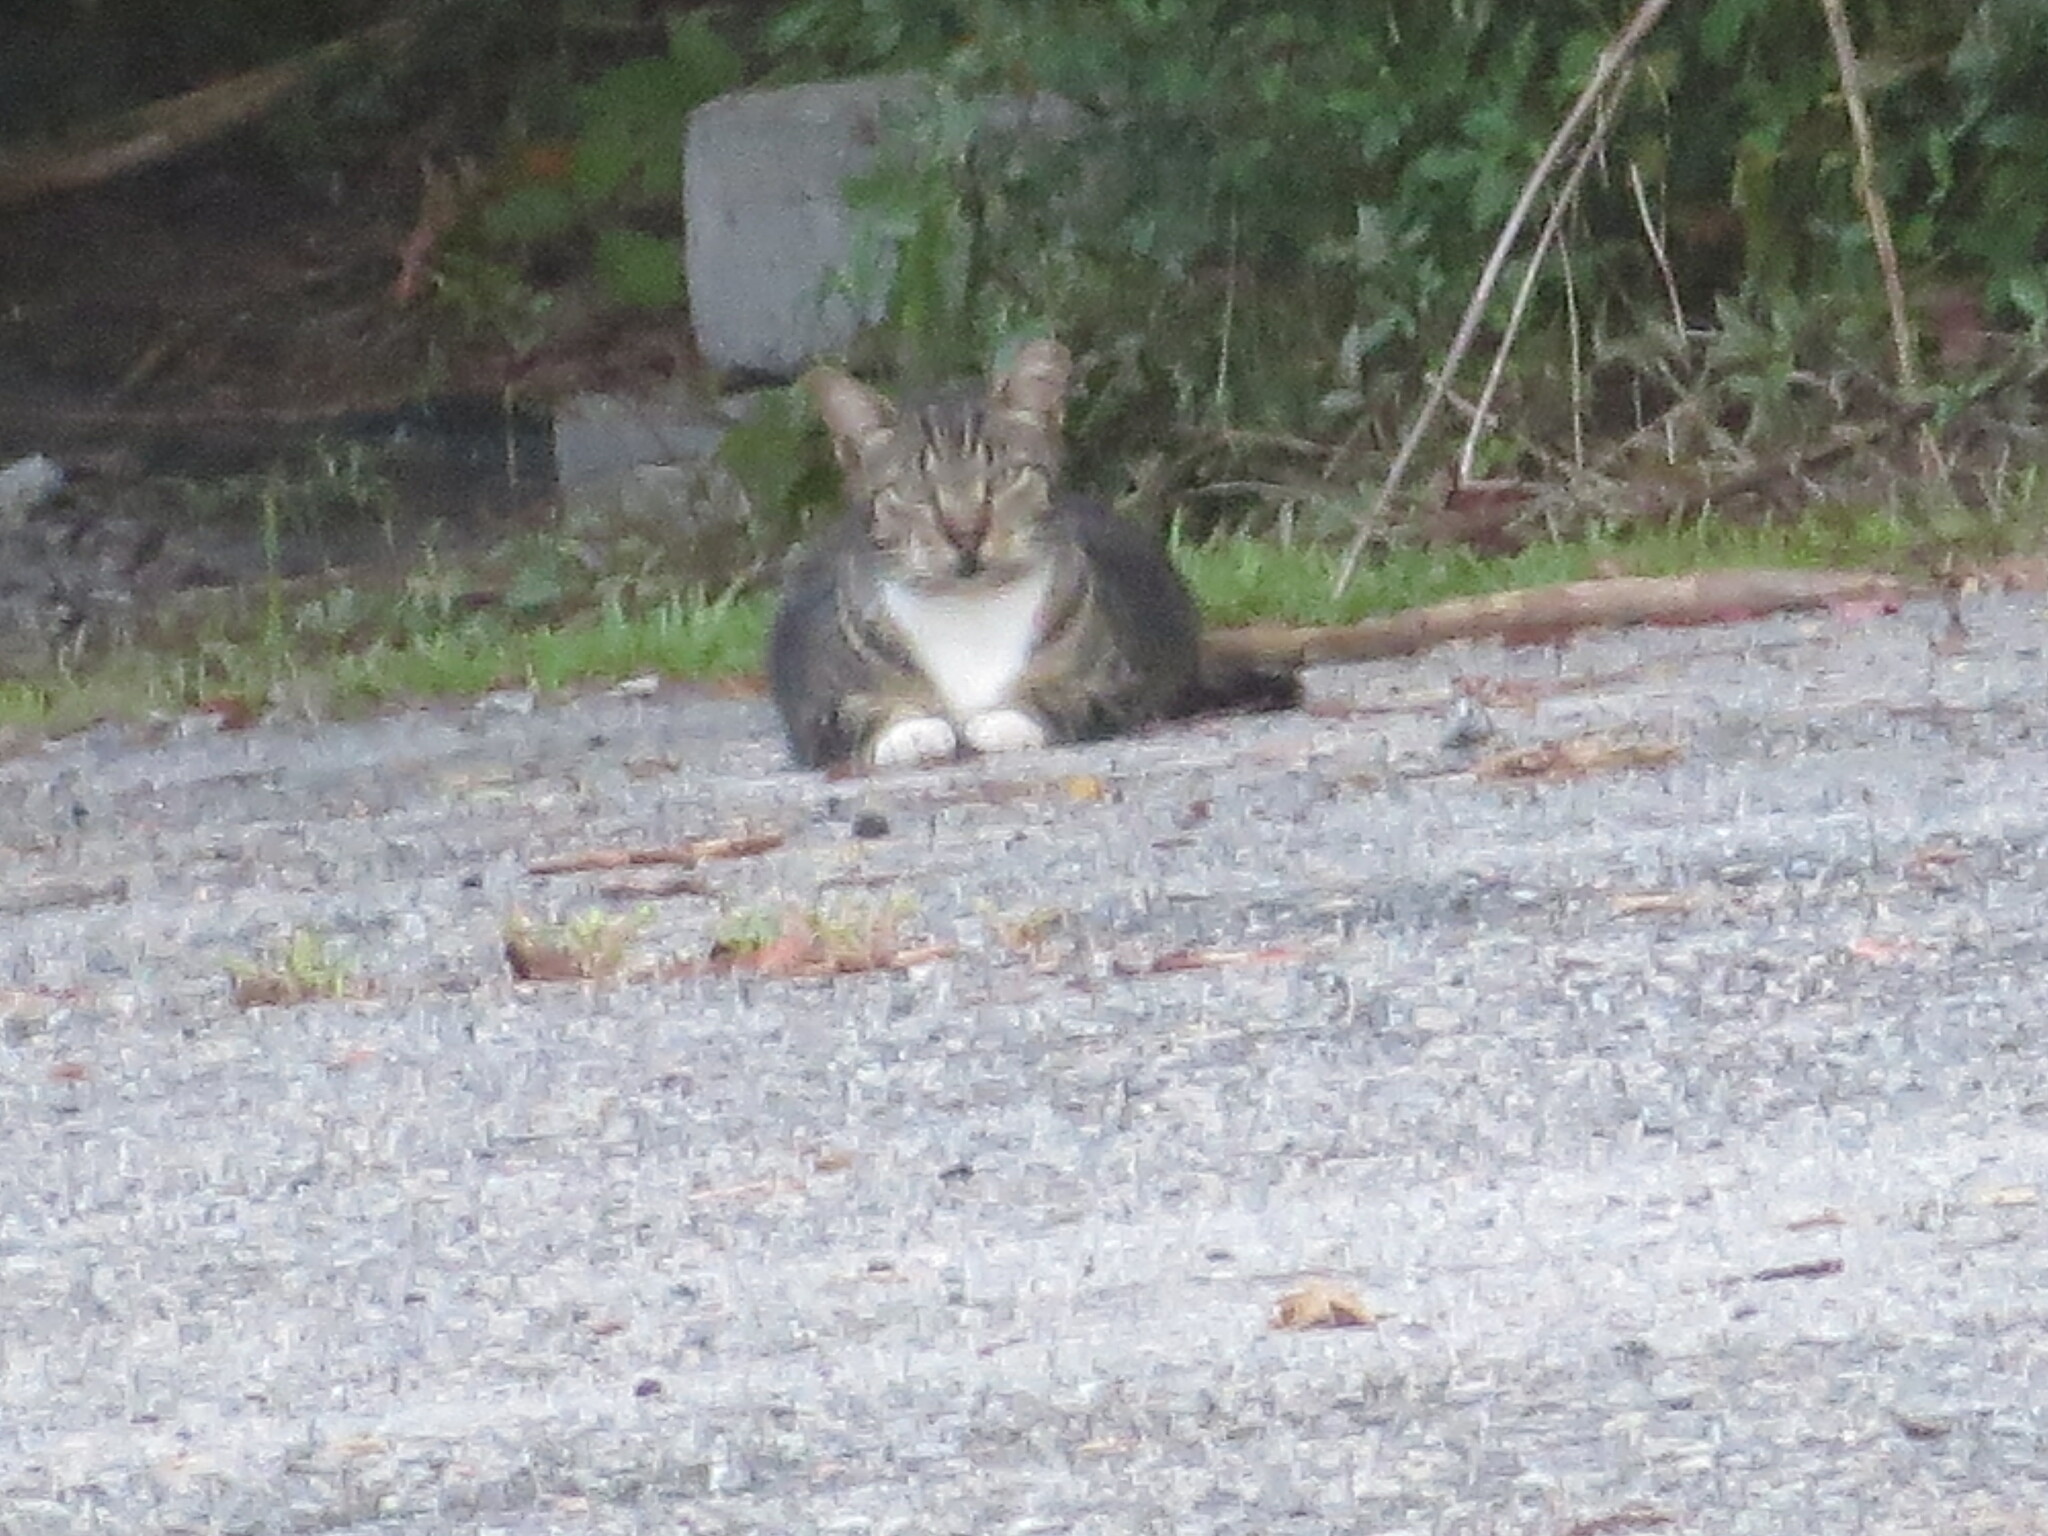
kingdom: Animalia
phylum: Chordata
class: Mammalia
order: Carnivora
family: Felidae
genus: Felis
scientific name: Felis catus
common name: Domestic cat
